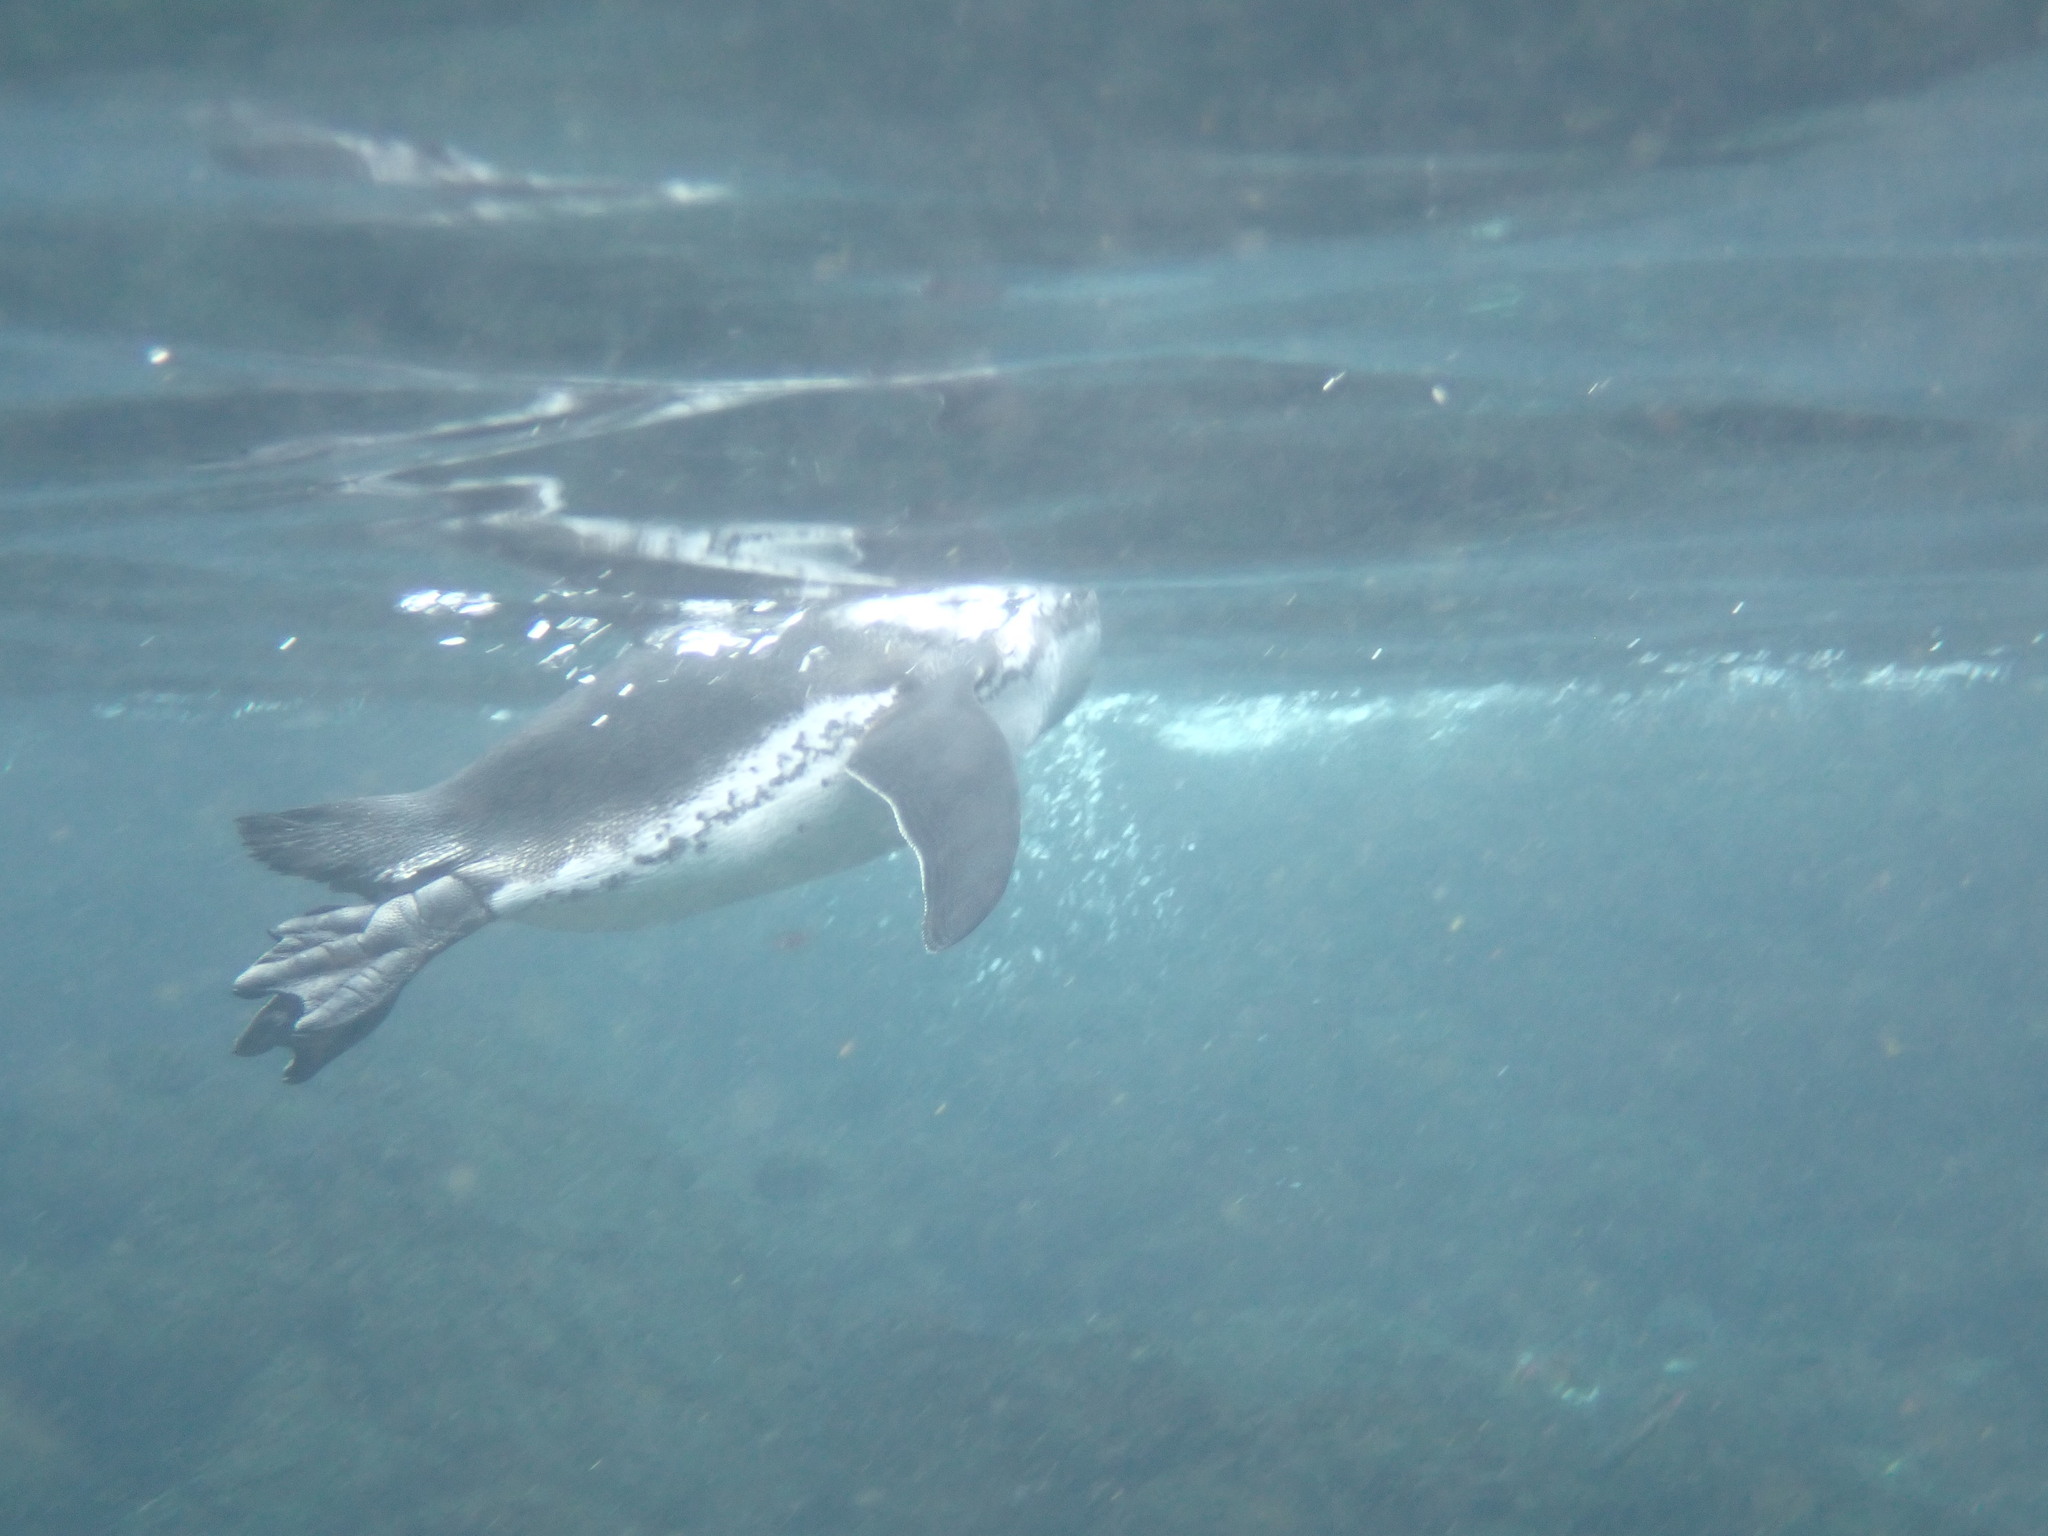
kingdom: Animalia
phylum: Chordata
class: Aves
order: Sphenisciformes
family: Spheniscidae
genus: Spheniscus
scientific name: Spheniscus mendiculus
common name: Galapagos penguin
